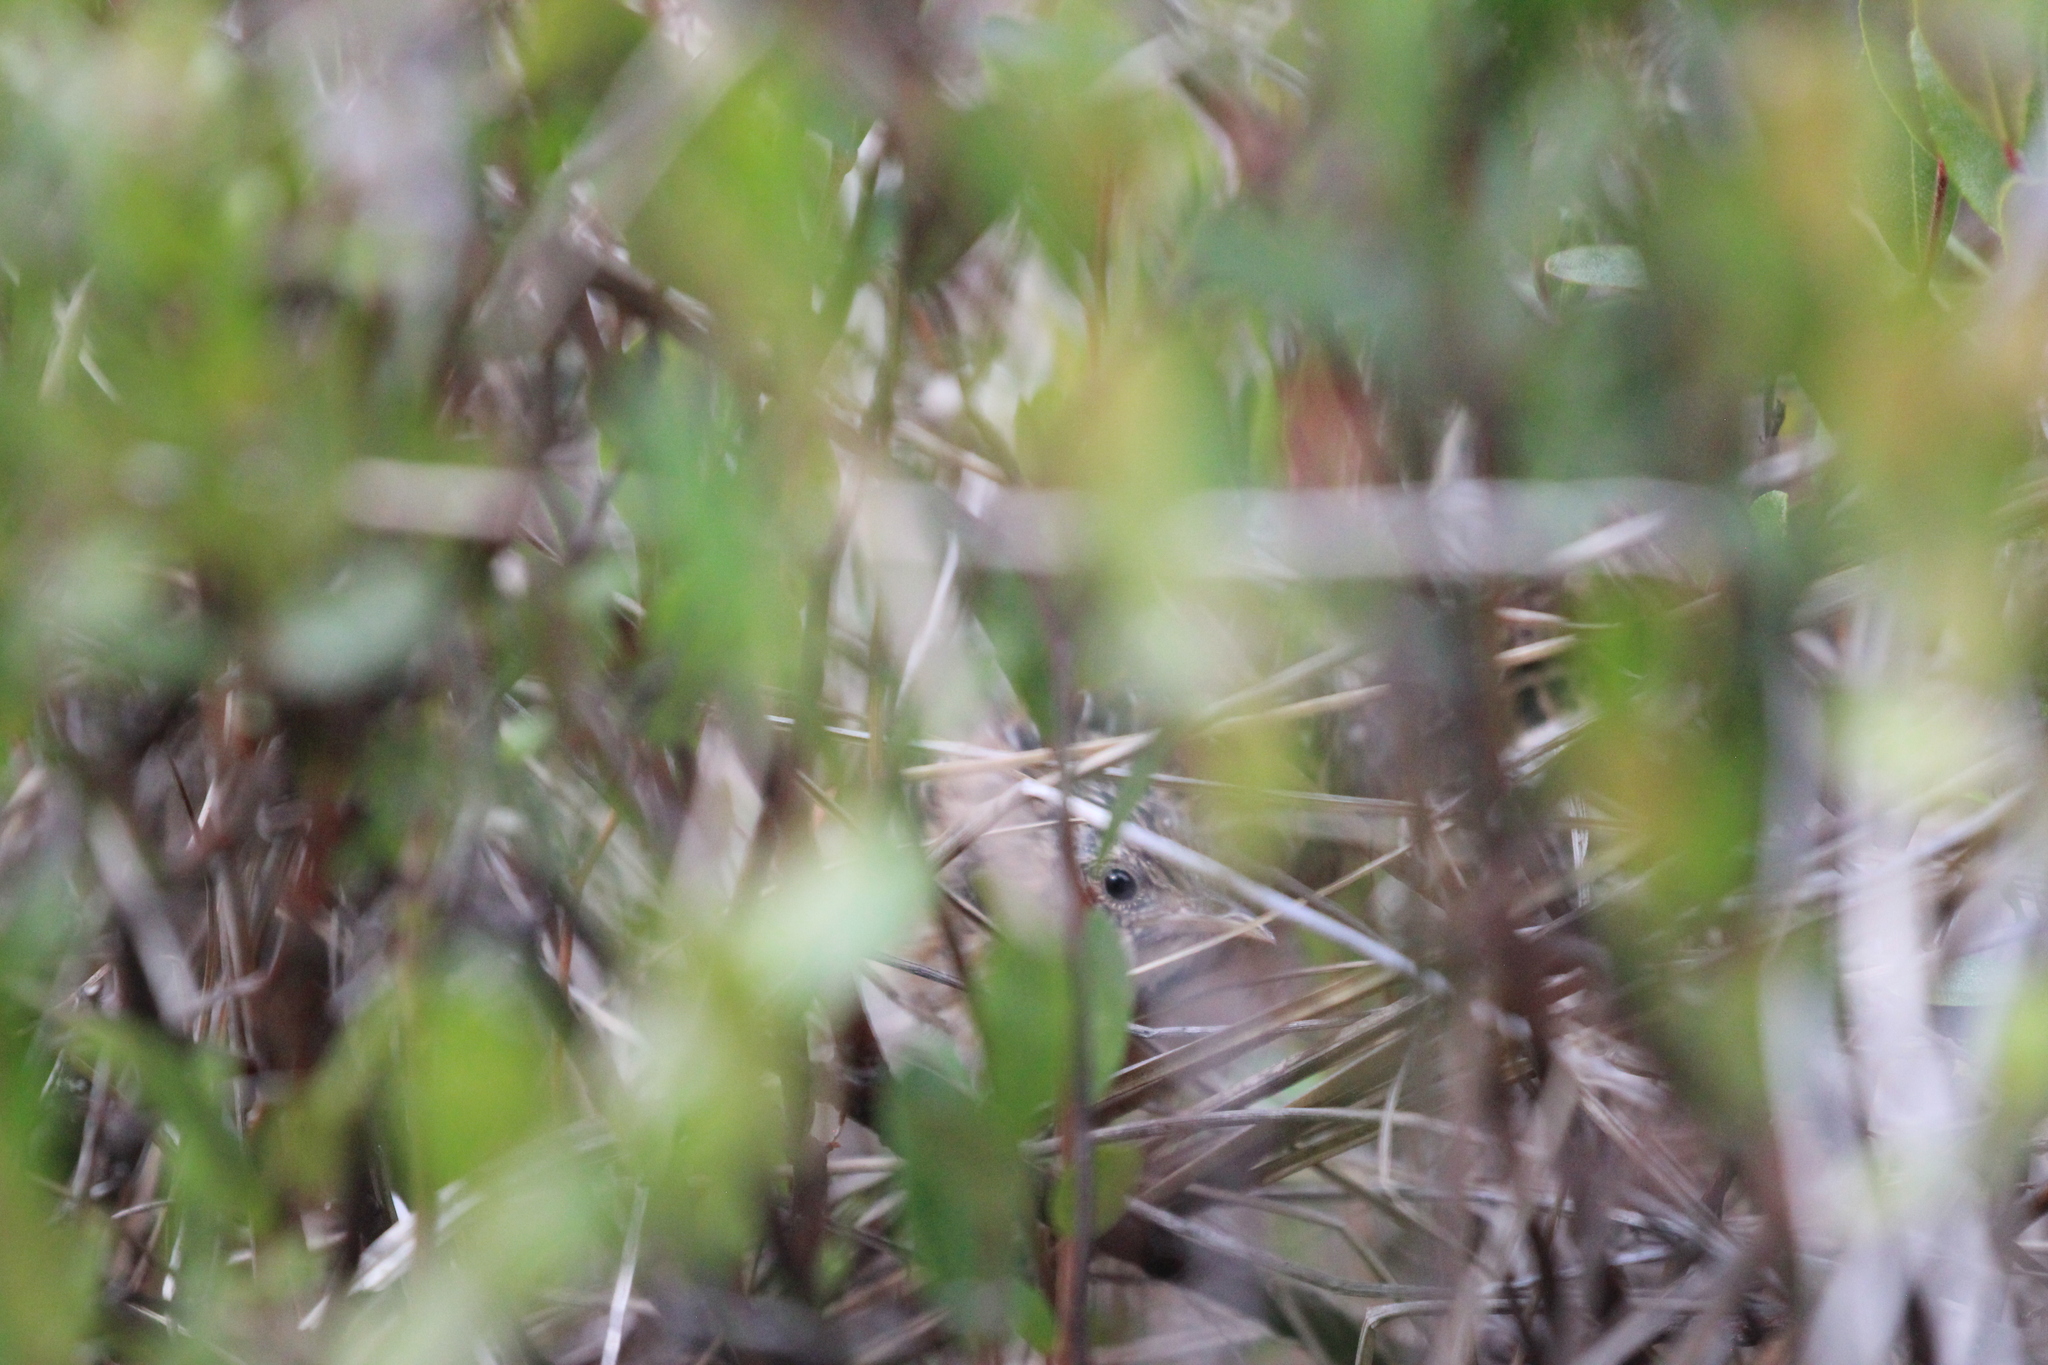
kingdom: Animalia
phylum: Chordata
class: Aves
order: Passeriformes
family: Troglodytidae
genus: Cistothorus
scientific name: Cistothorus platensis
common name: Sedge wren
